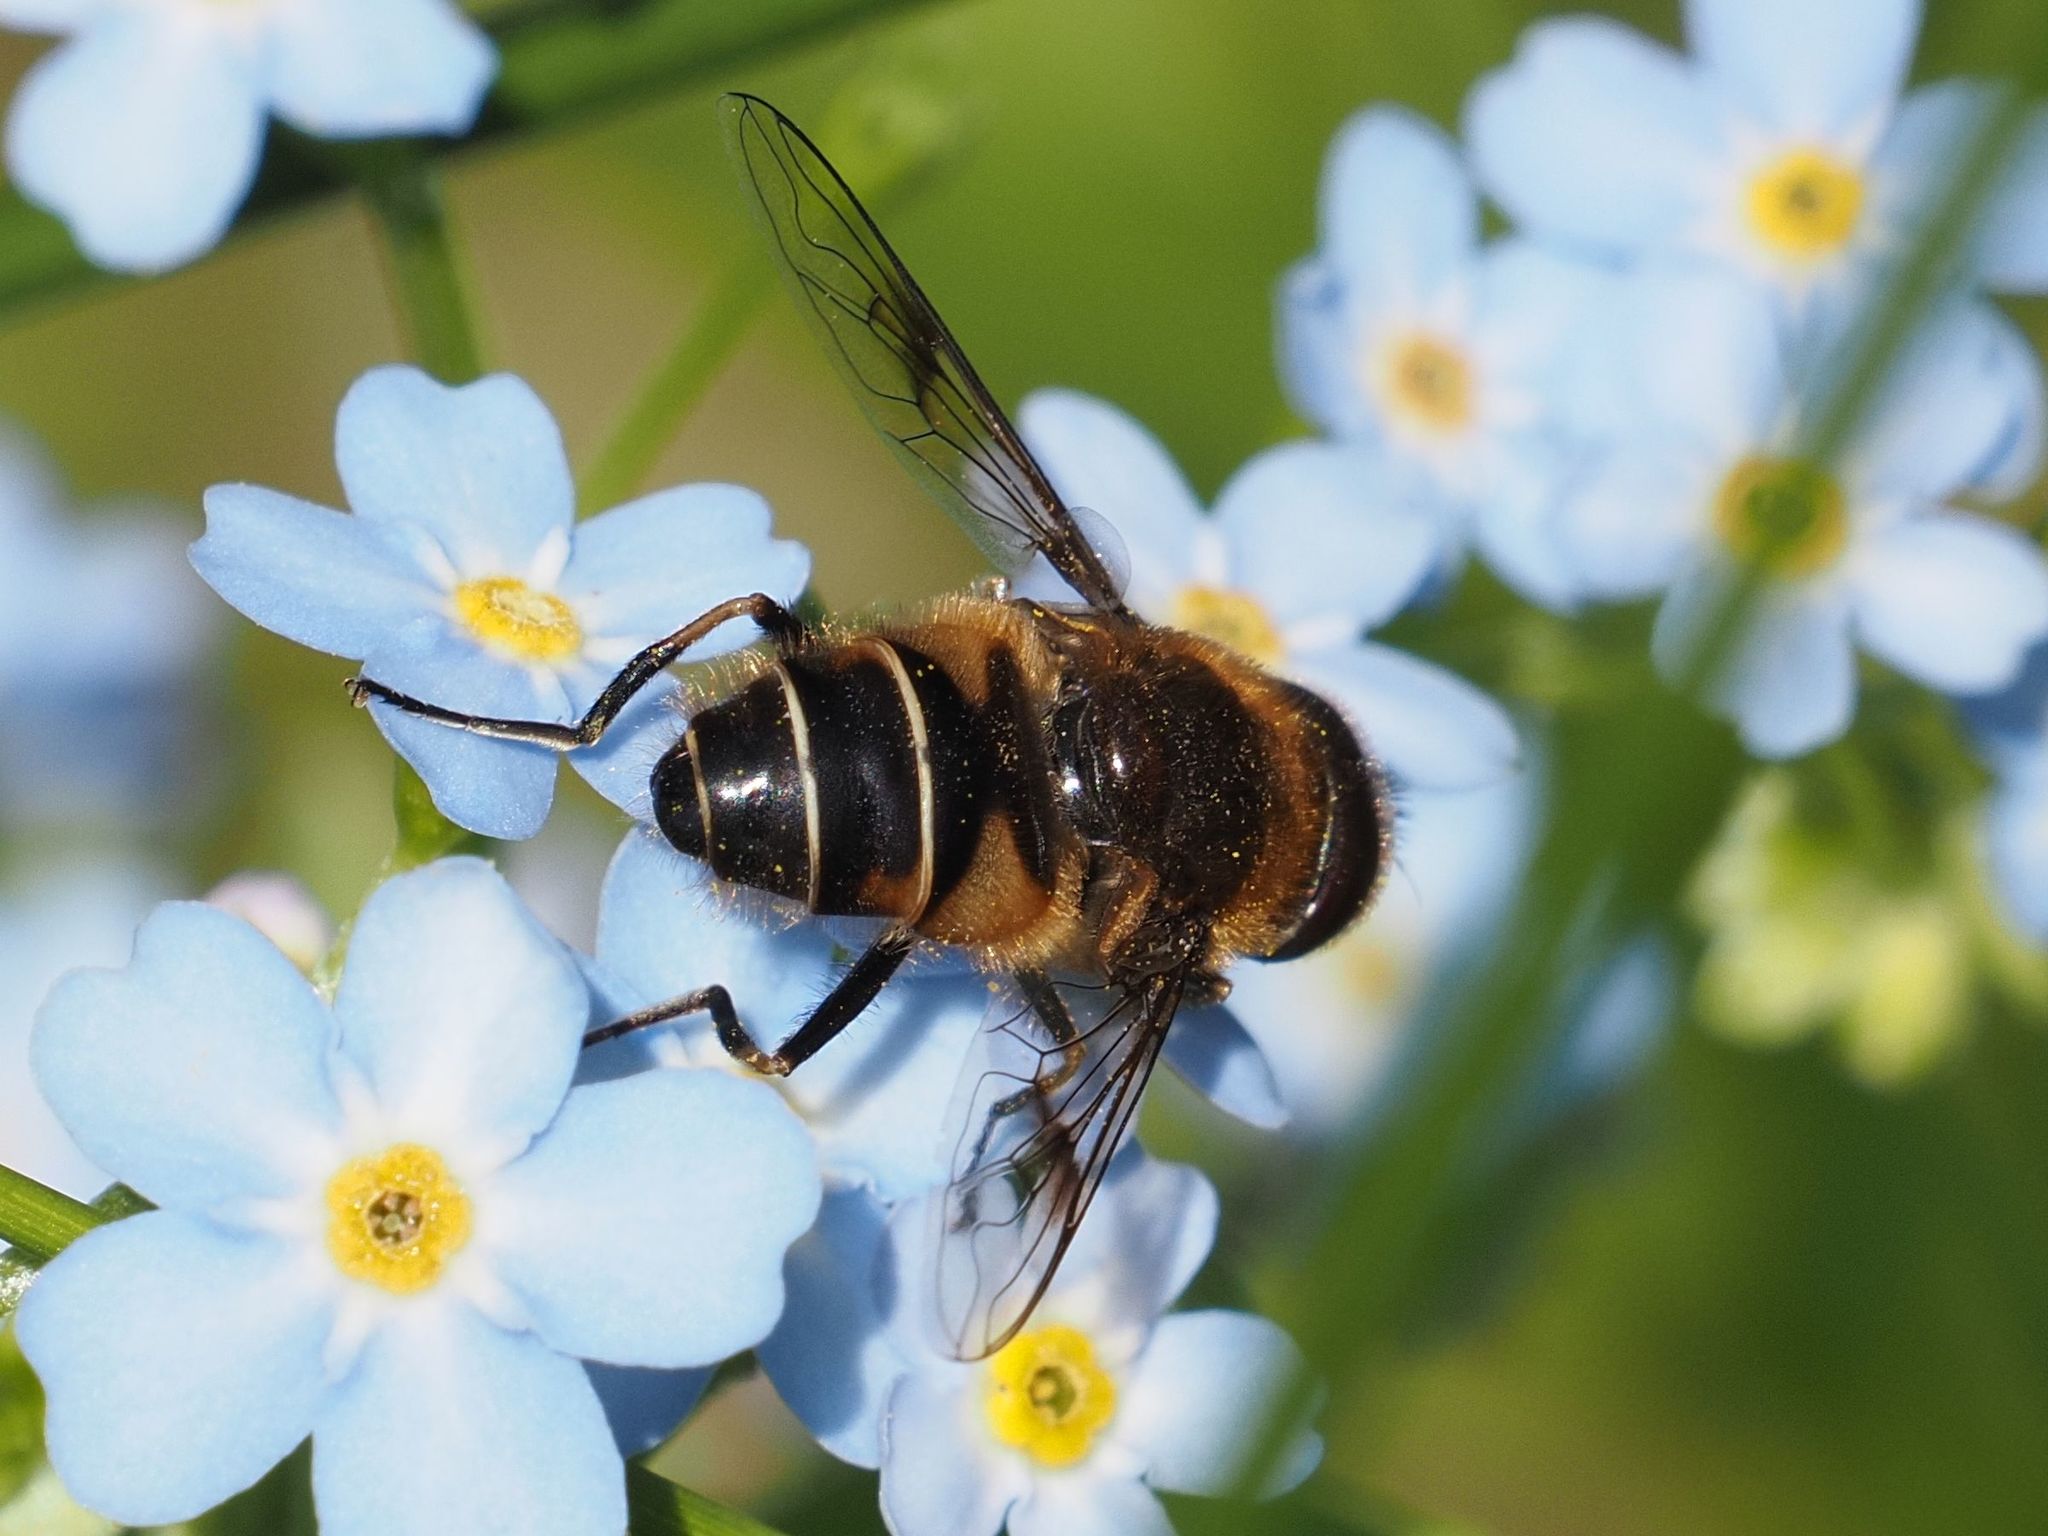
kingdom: Animalia
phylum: Arthropoda
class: Insecta
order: Diptera
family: Syrphidae
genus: Eristalis
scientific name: Eristalis rupium
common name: Hover fly
